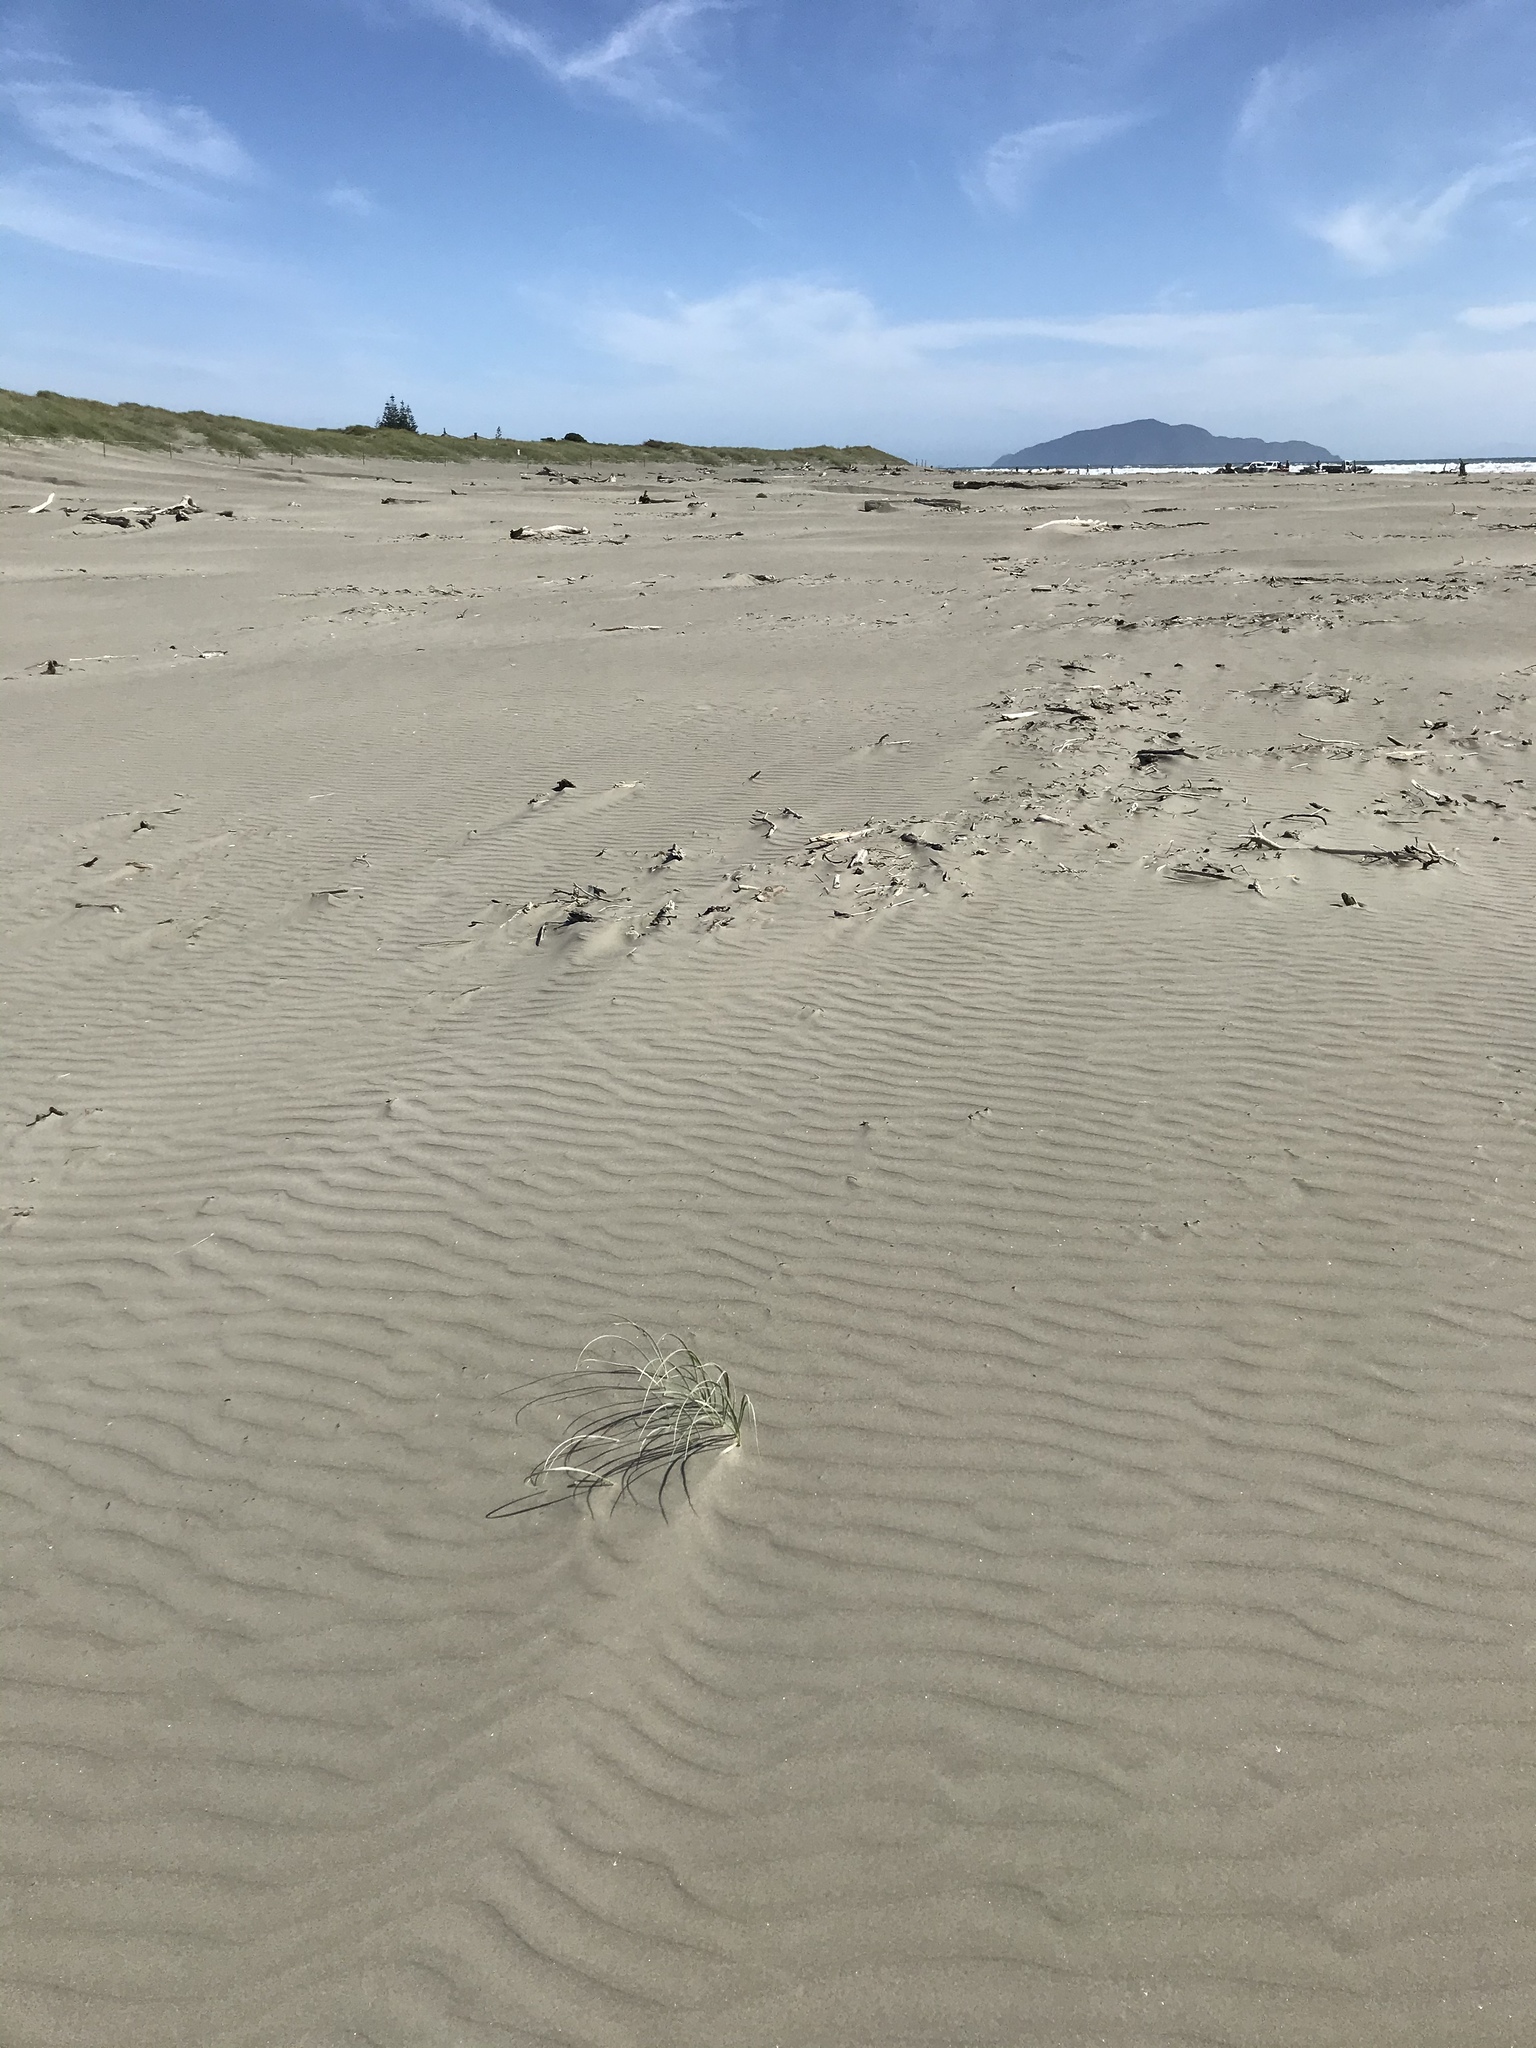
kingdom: Plantae
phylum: Tracheophyta
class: Liliopsida
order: Poales
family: Poaceae
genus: Spinifex
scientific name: Spinifex sericeus
